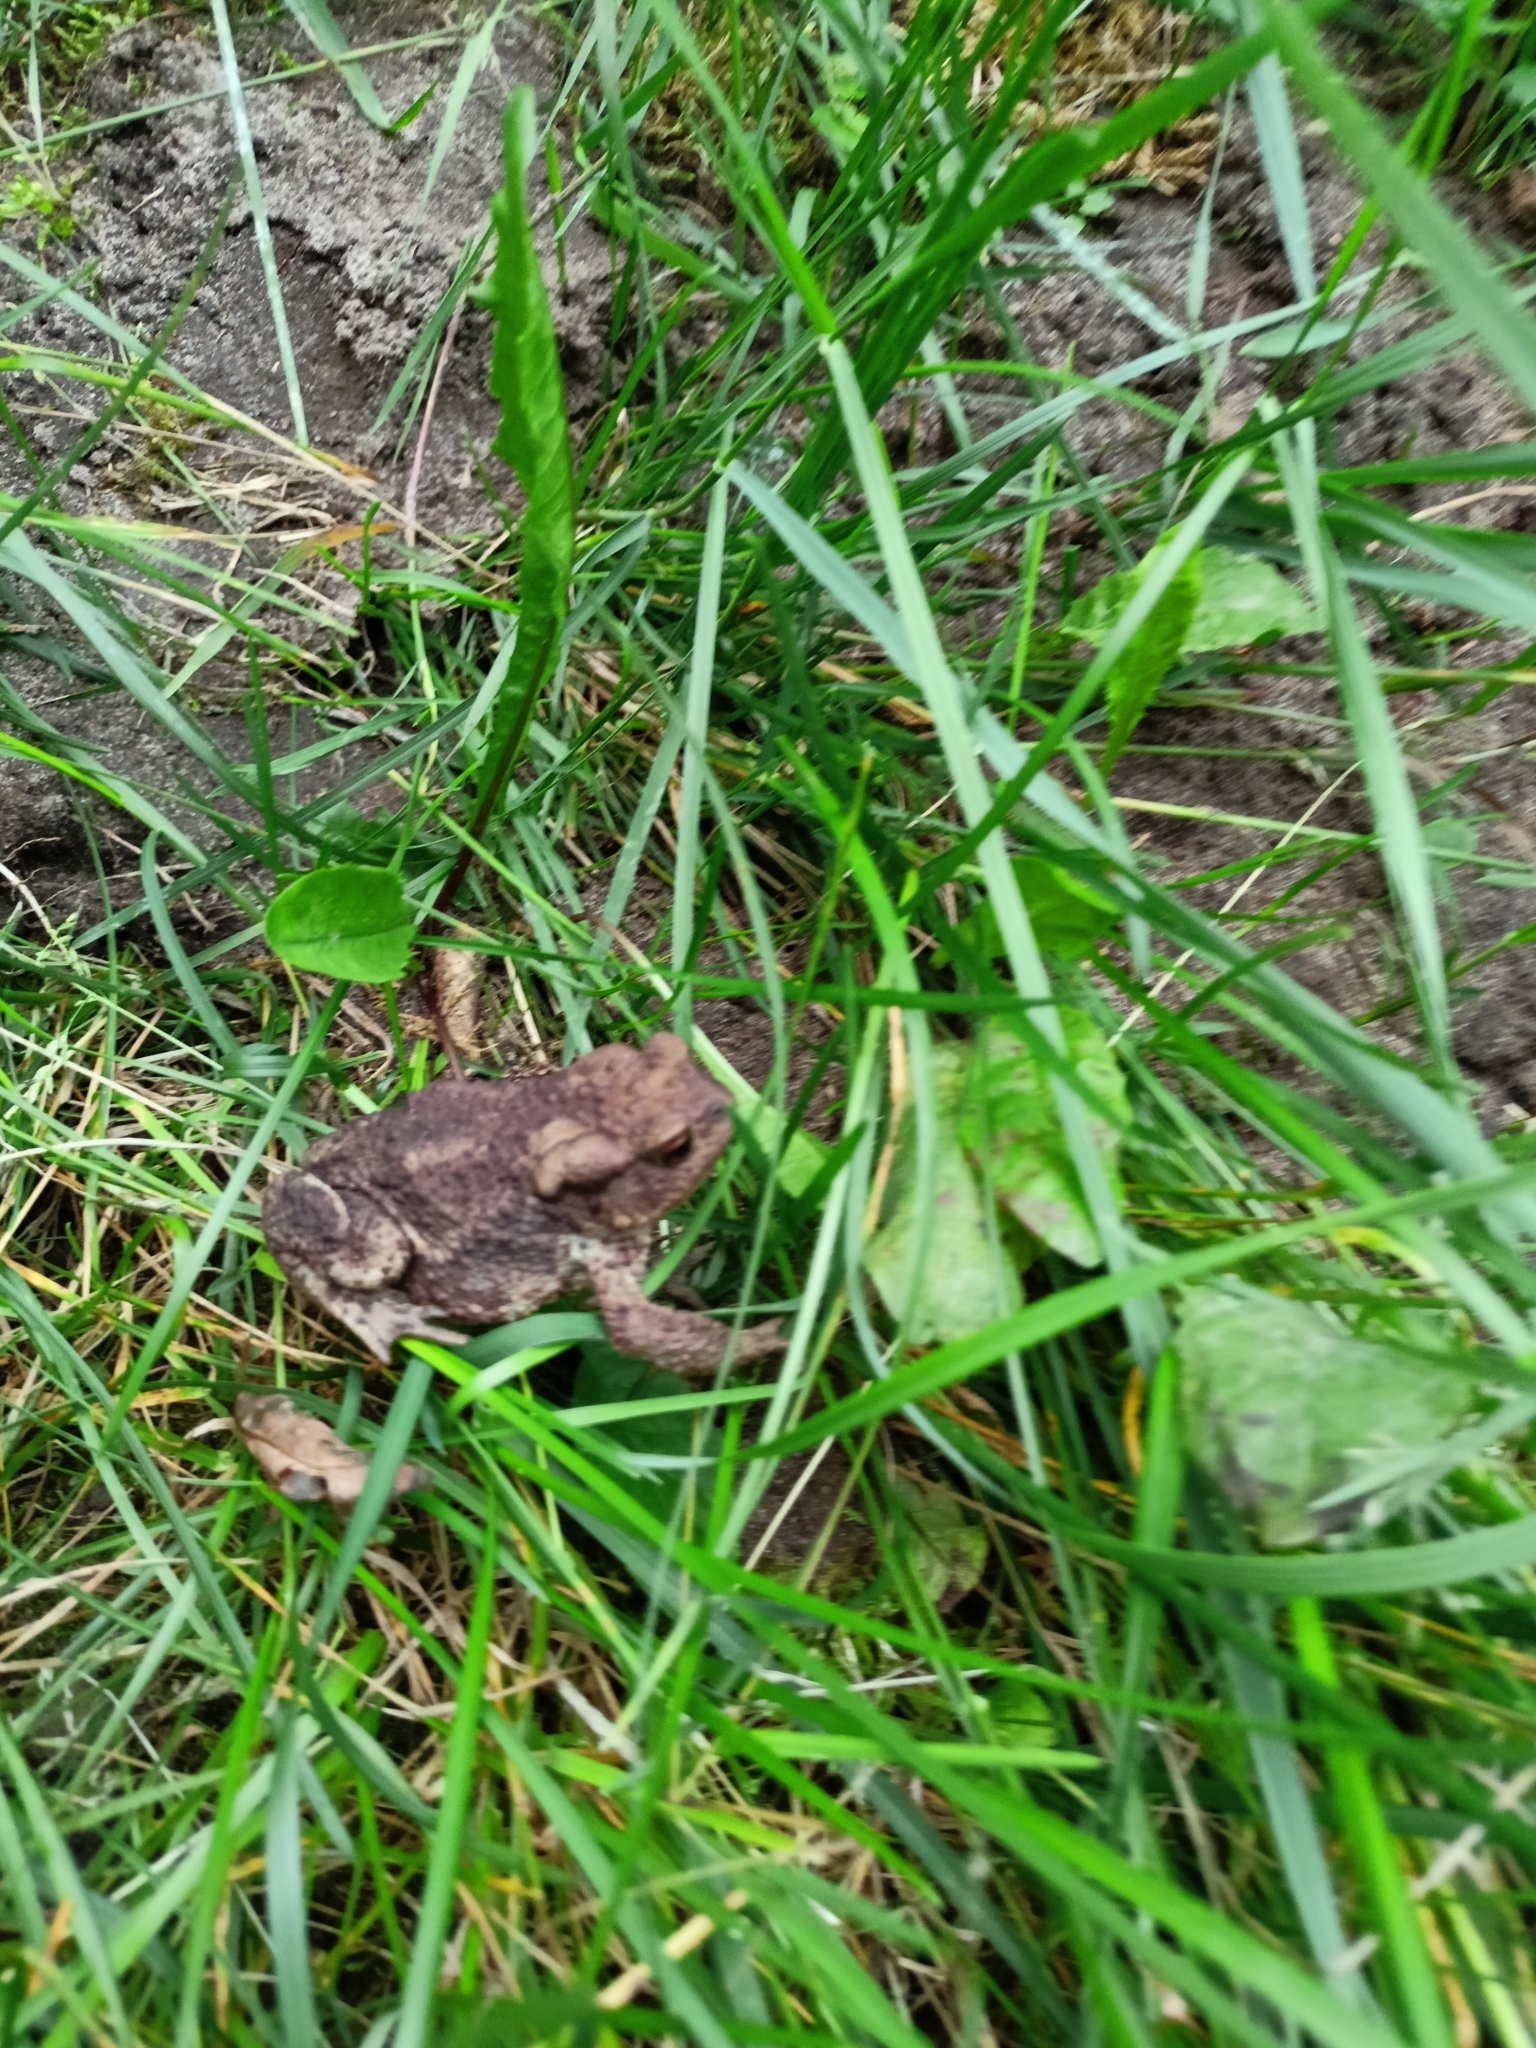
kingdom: Animalia
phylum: Chordata
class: Amphibia
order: Anura
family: Bufonidae
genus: Bufo
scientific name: Bufo bufo
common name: Common toad
